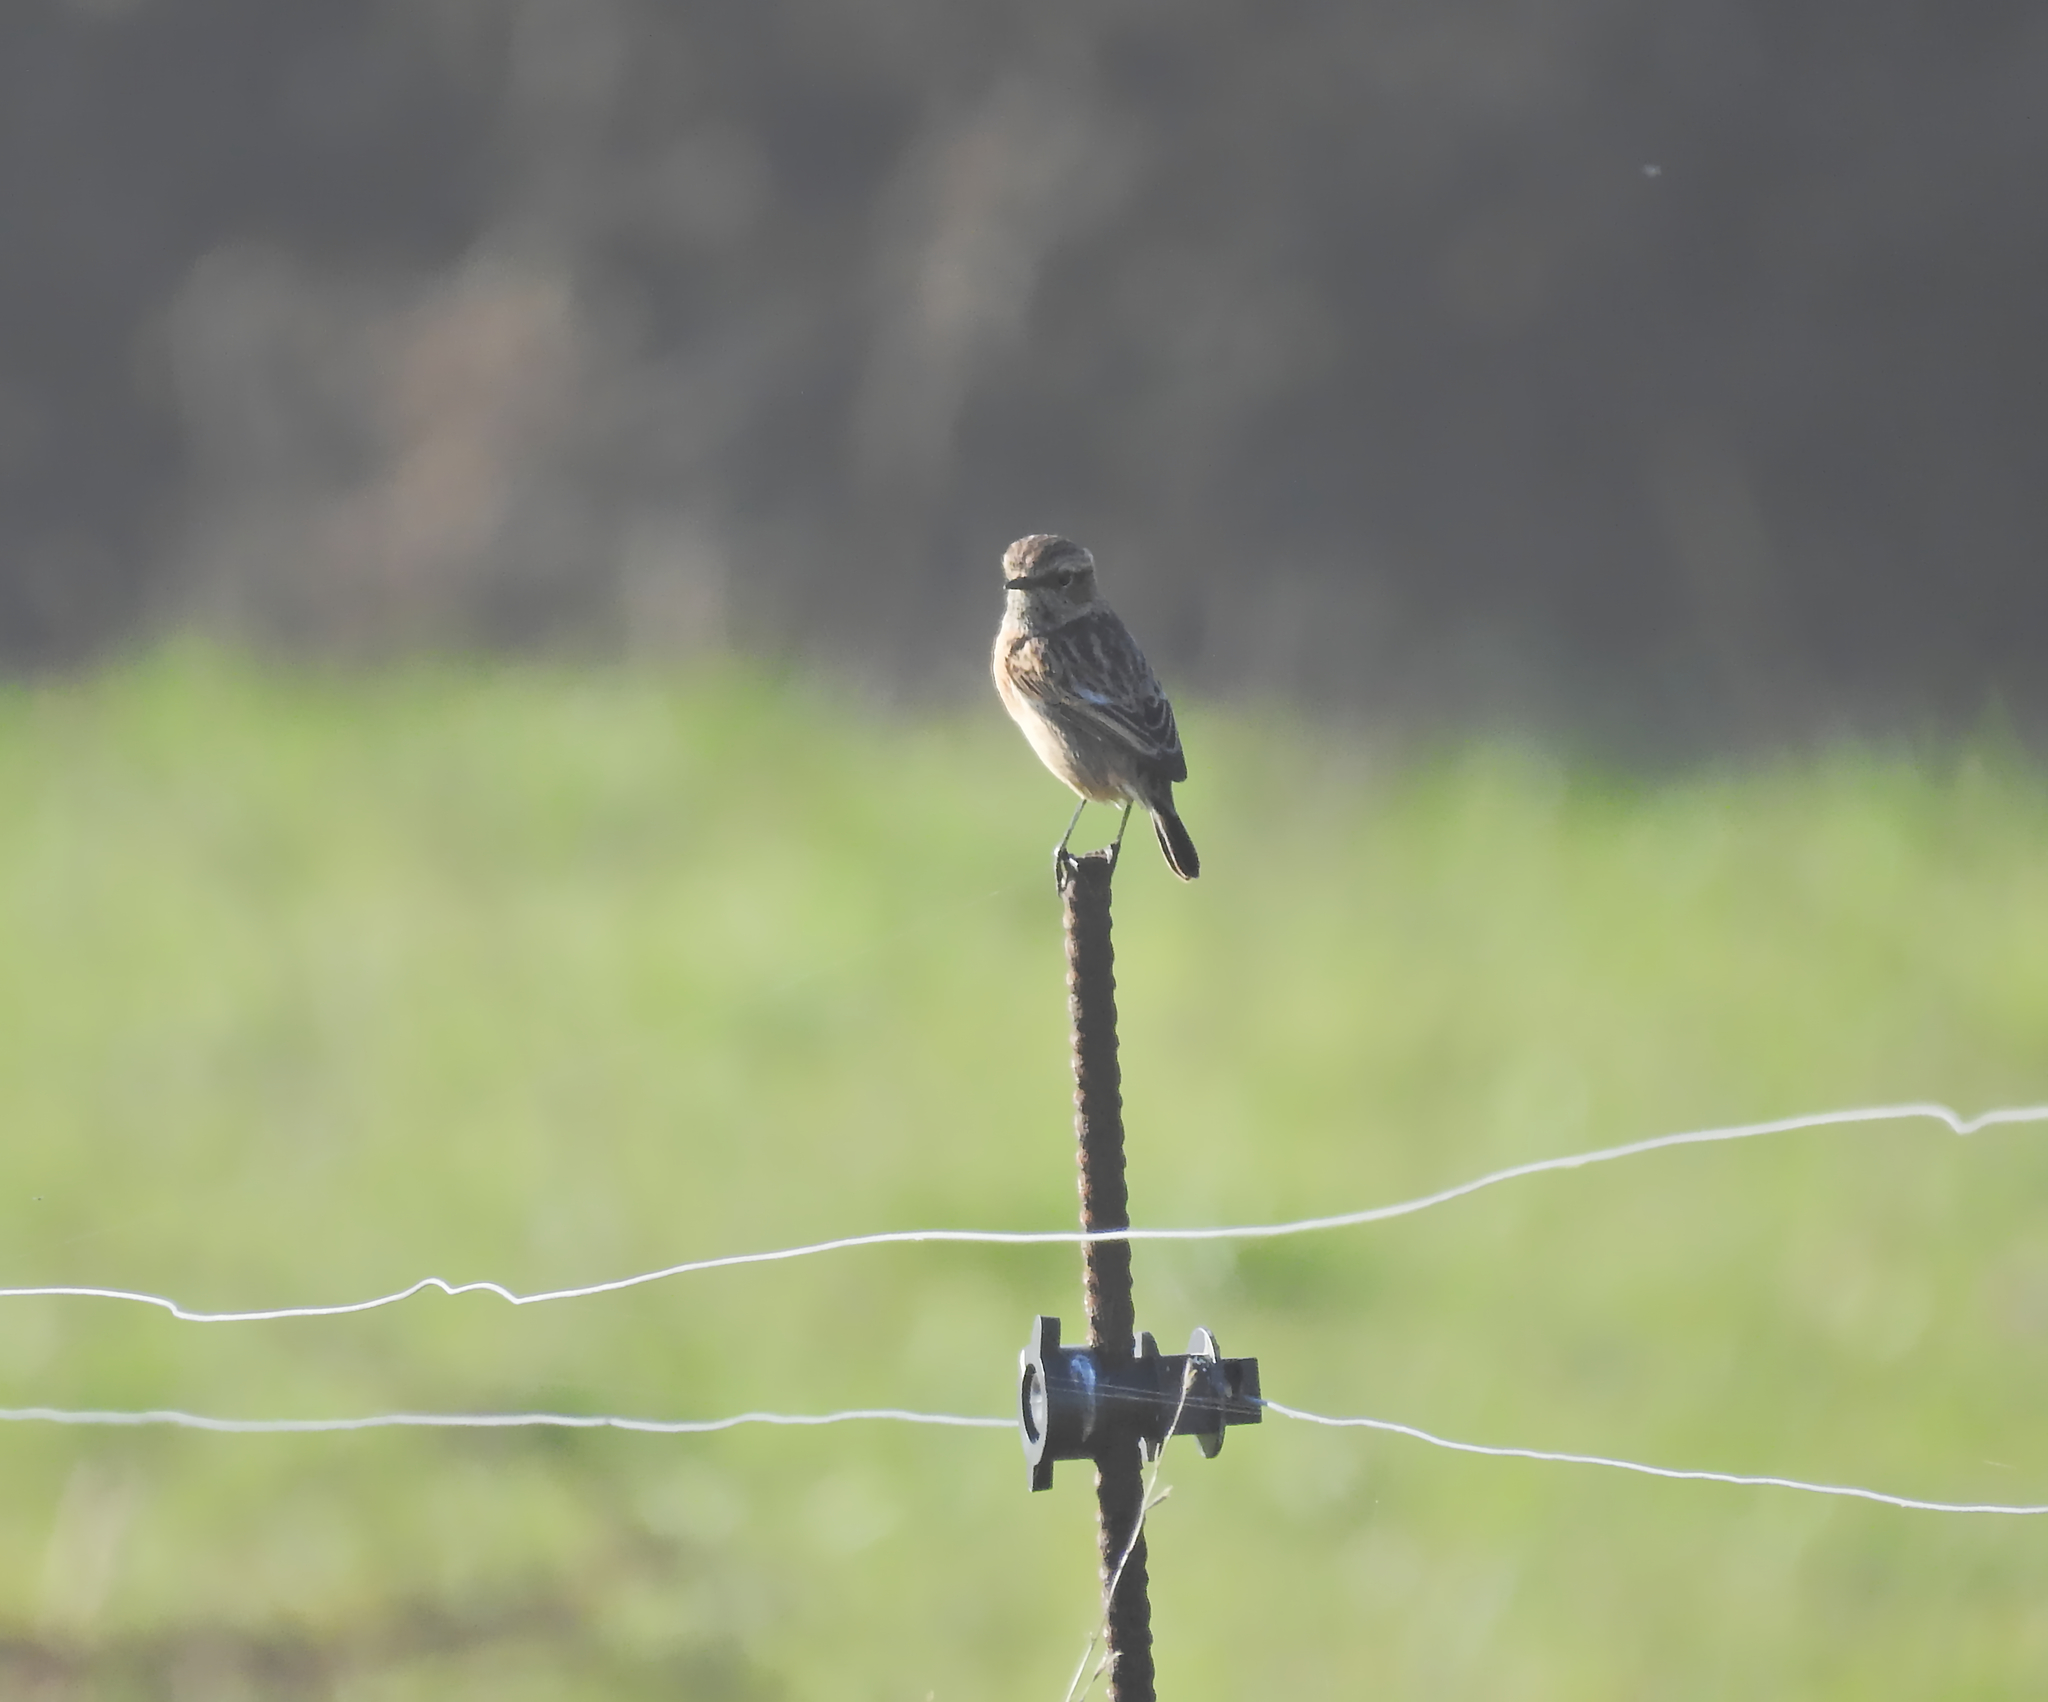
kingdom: Animalia
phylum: Chordata
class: Aves
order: Passeriformes
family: Muscicapidae
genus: Saxicola
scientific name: Saxicola rubicola
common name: European stonechat
